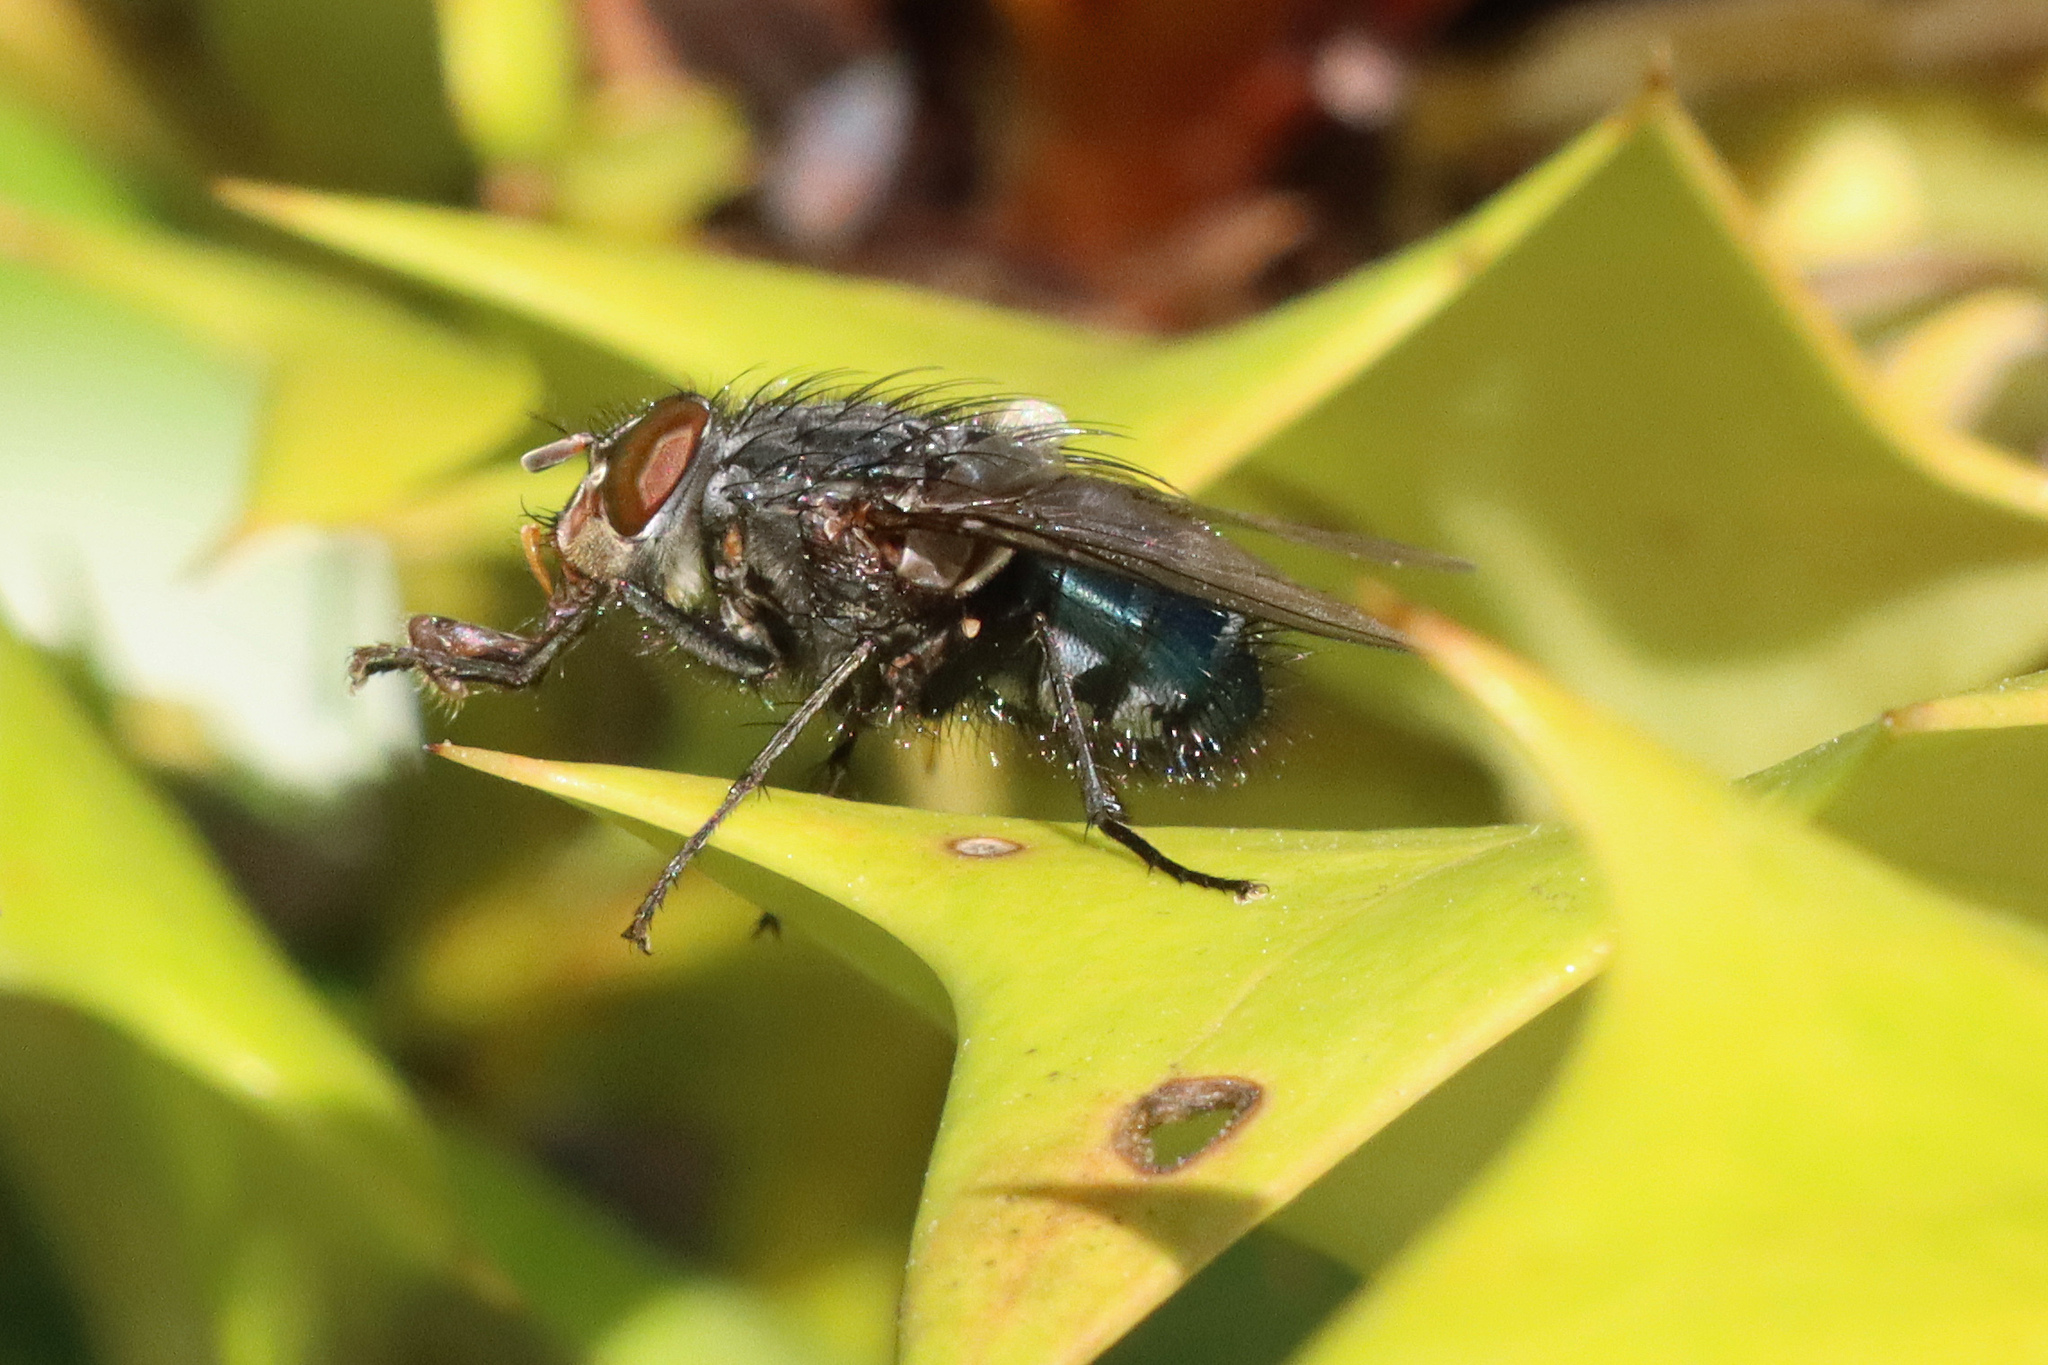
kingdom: Animalia
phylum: Arthropoda
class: Insecta
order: Diptera
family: Calliphoridae
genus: Calliphora
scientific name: Calliphora vicina
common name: Common blow flie
